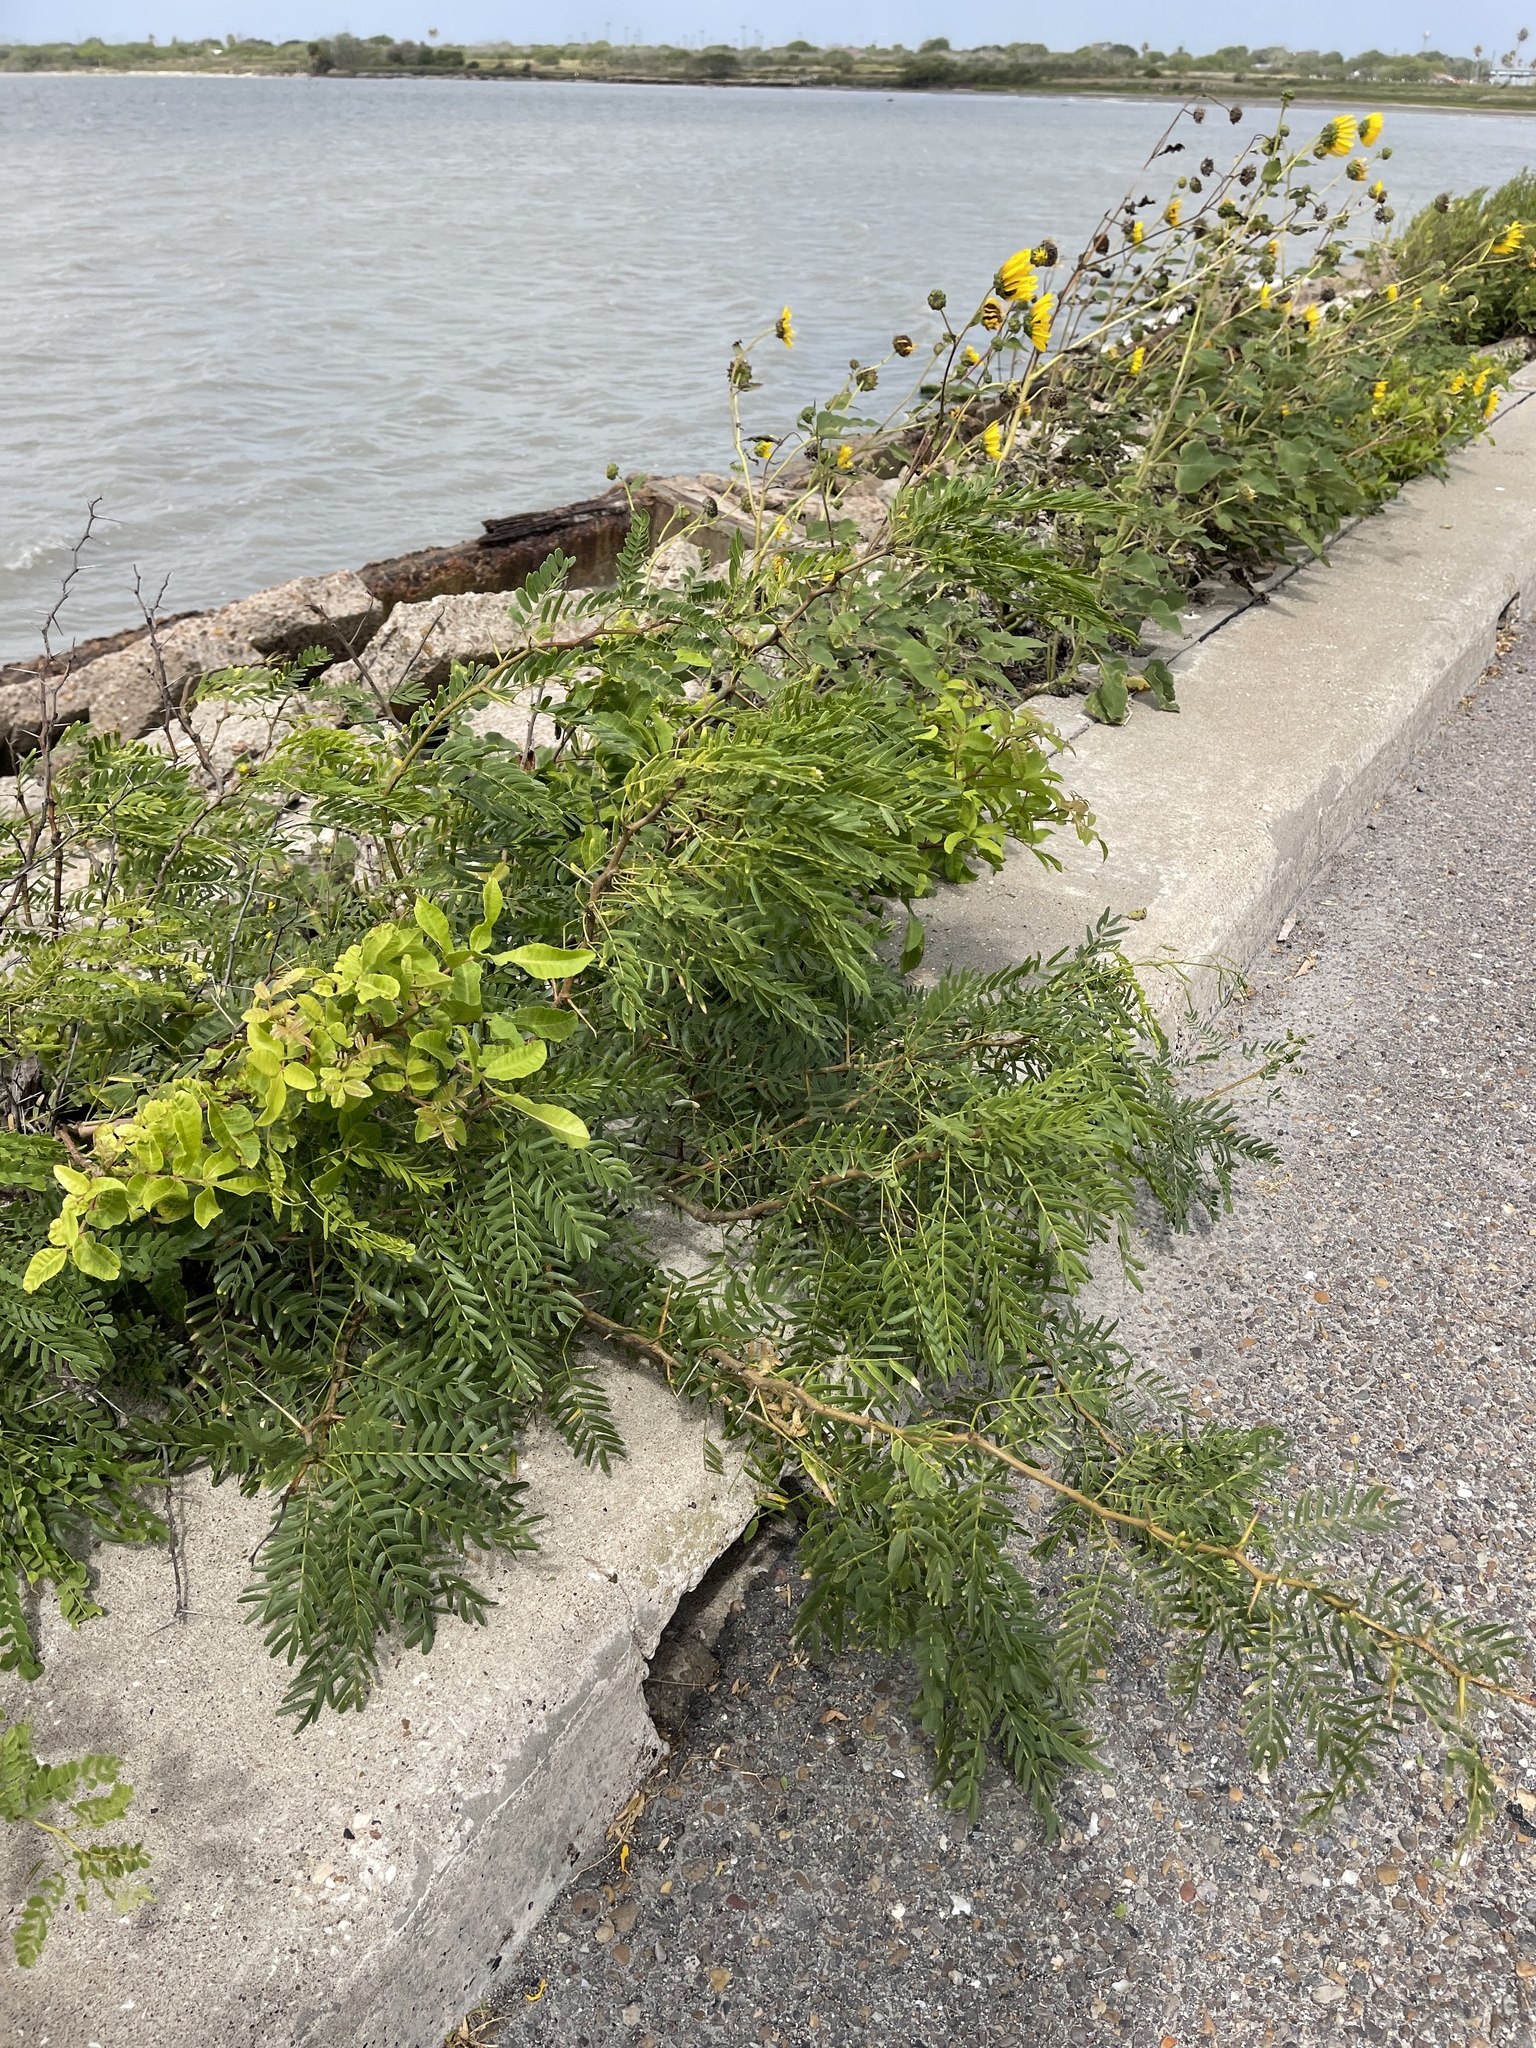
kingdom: Plantae
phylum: Tracheophyta
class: Magnoliopsida
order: Fabales
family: Fabaceae
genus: Prosopis
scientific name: Prosopis glandulosa
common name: Honey mesquite
